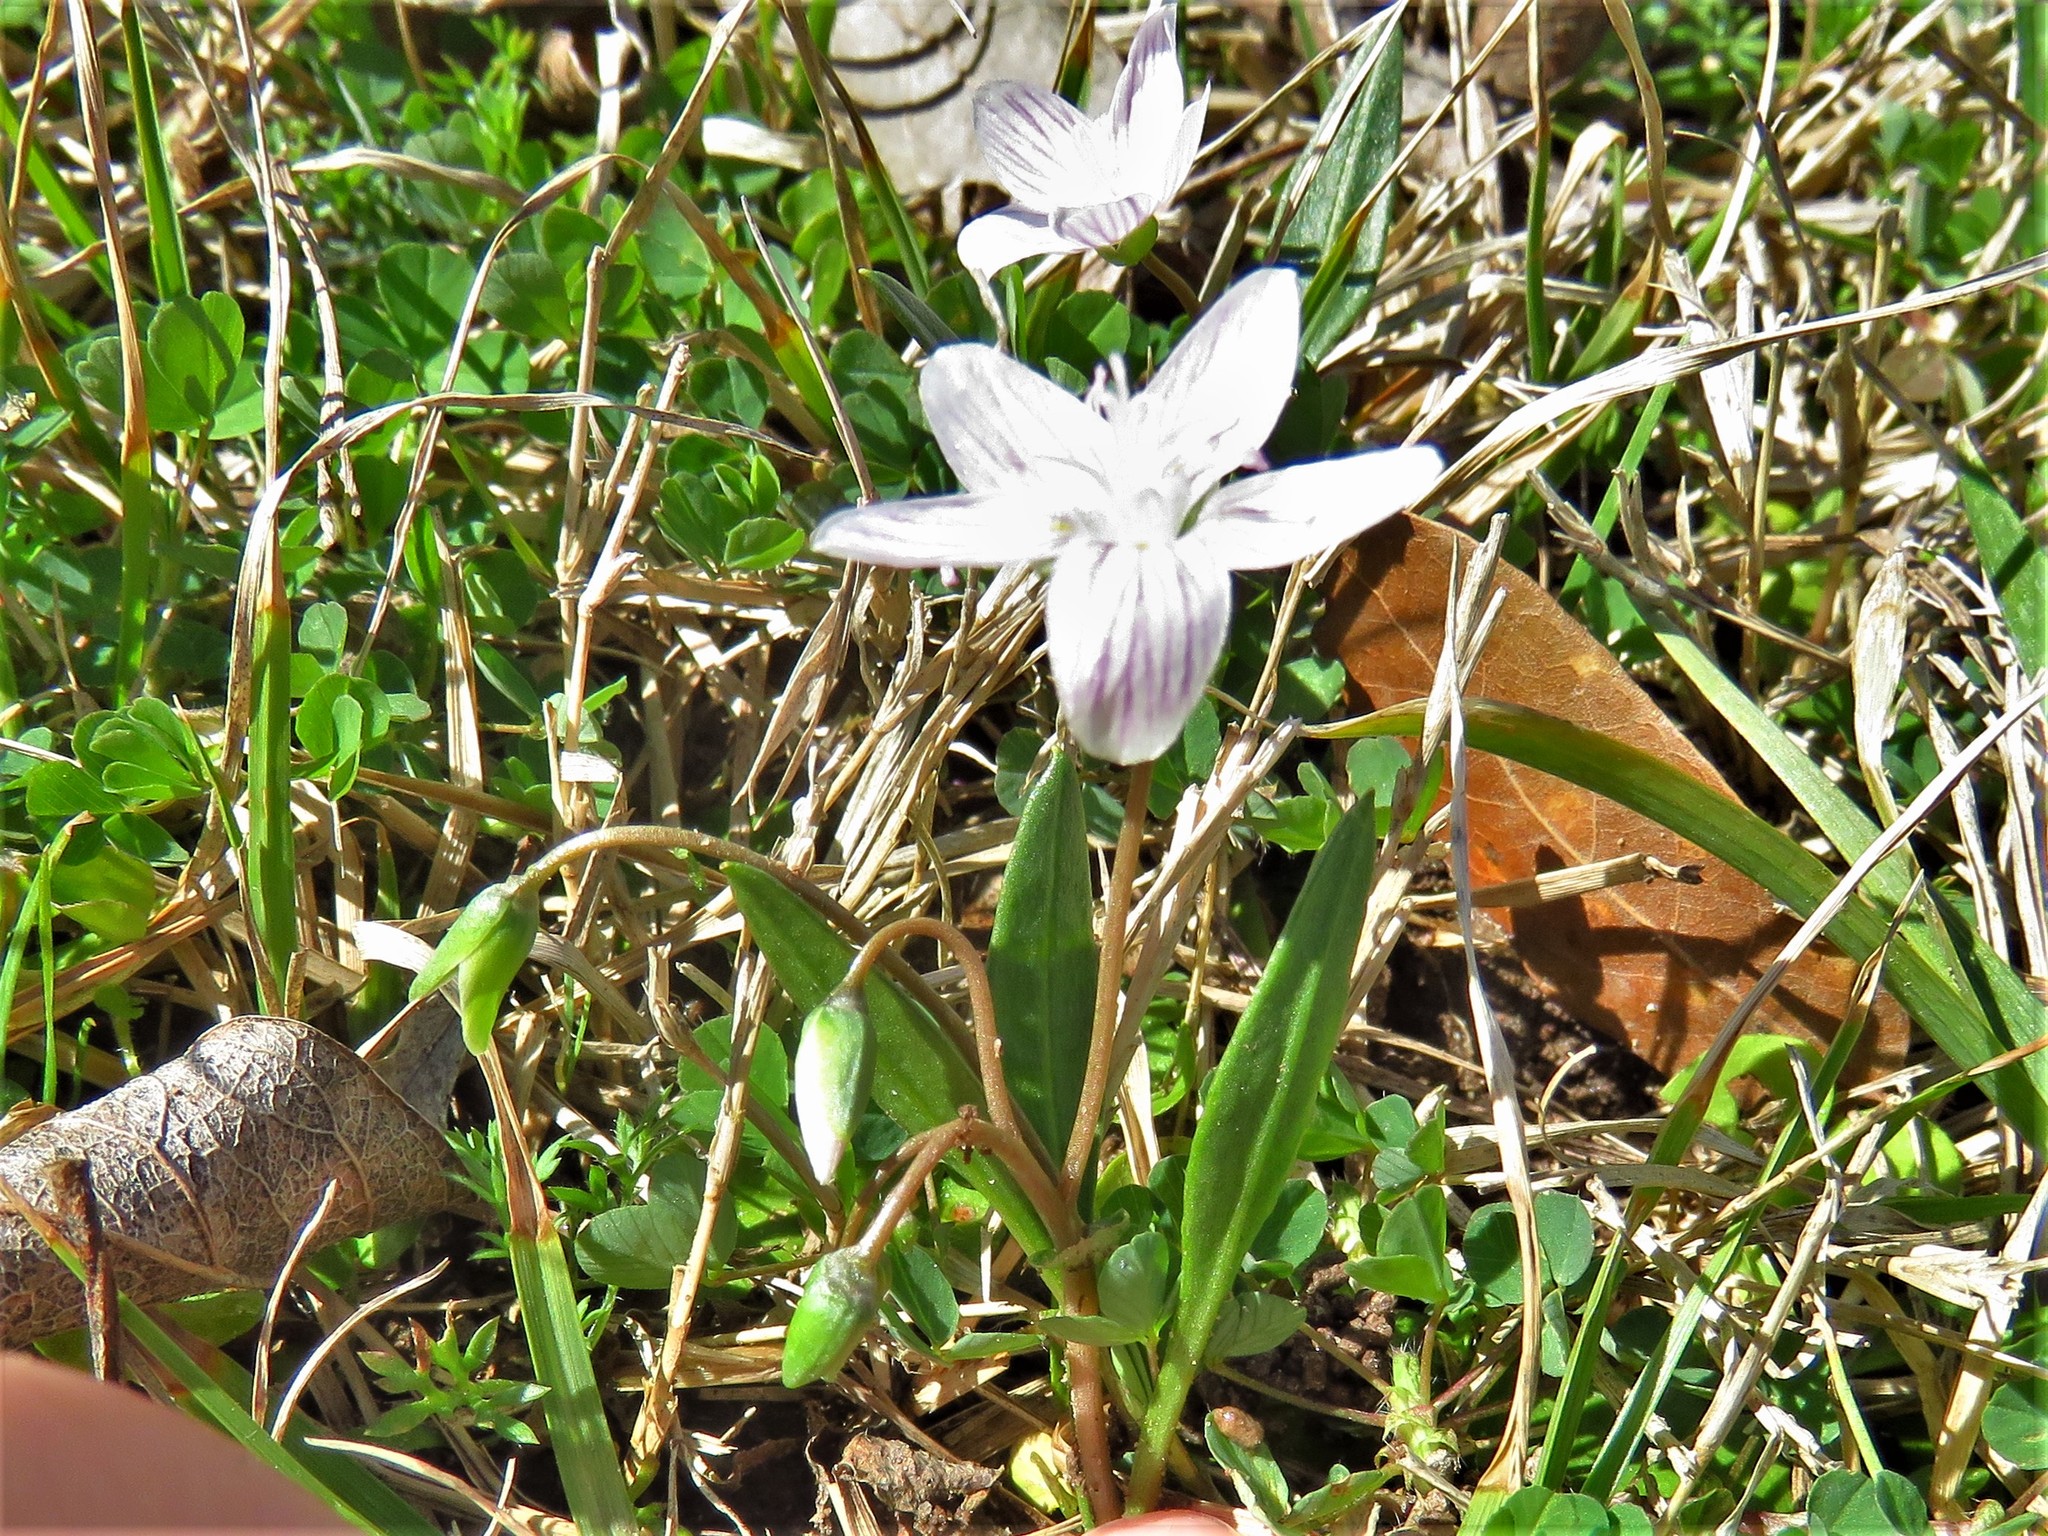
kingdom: Plantae
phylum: Tracheophyta
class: Magnoliopsida
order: Caryophyllales
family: Montiaceae
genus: Claytonia
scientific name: Claytonia virginica
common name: Virginia springbeauty
